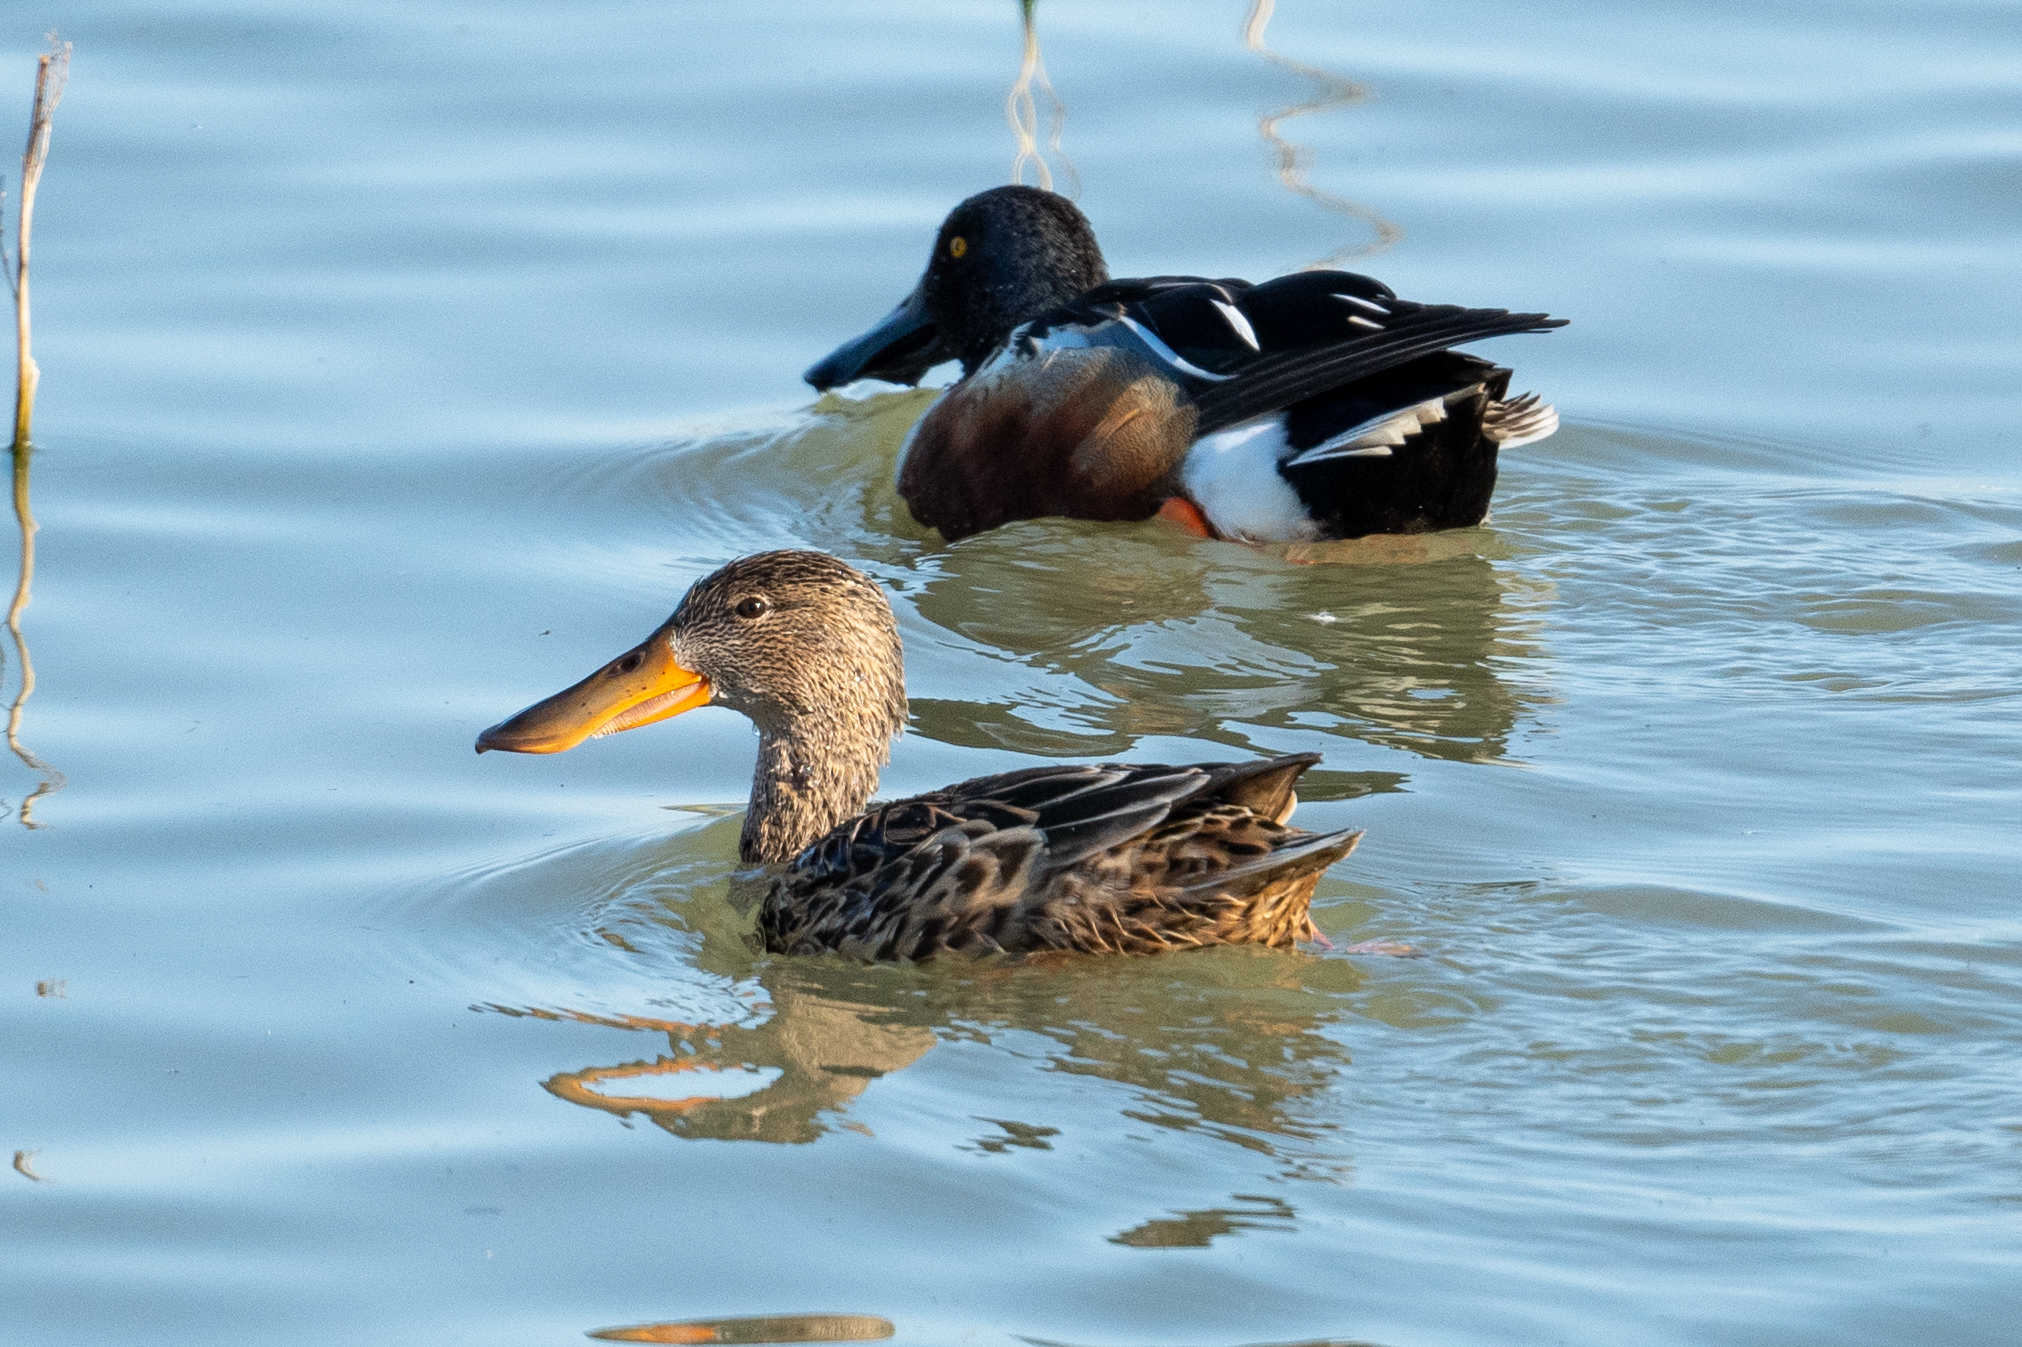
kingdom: Animalia
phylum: Chordata
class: Aves
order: Anseriformes
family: Anatidae
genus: Spatula
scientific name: Spatula clypeata
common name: Northern shoveler
